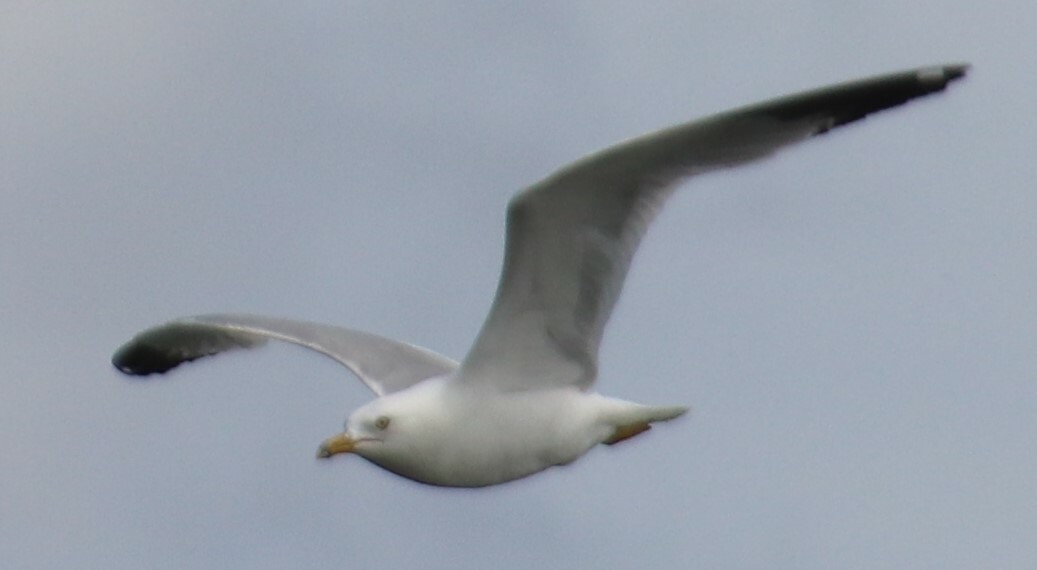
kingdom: Animalia
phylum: Chordata
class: Aves
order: Charadriiformes
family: Laridae
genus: Larus
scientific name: Larus delawarensis
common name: Ring-billed gull
